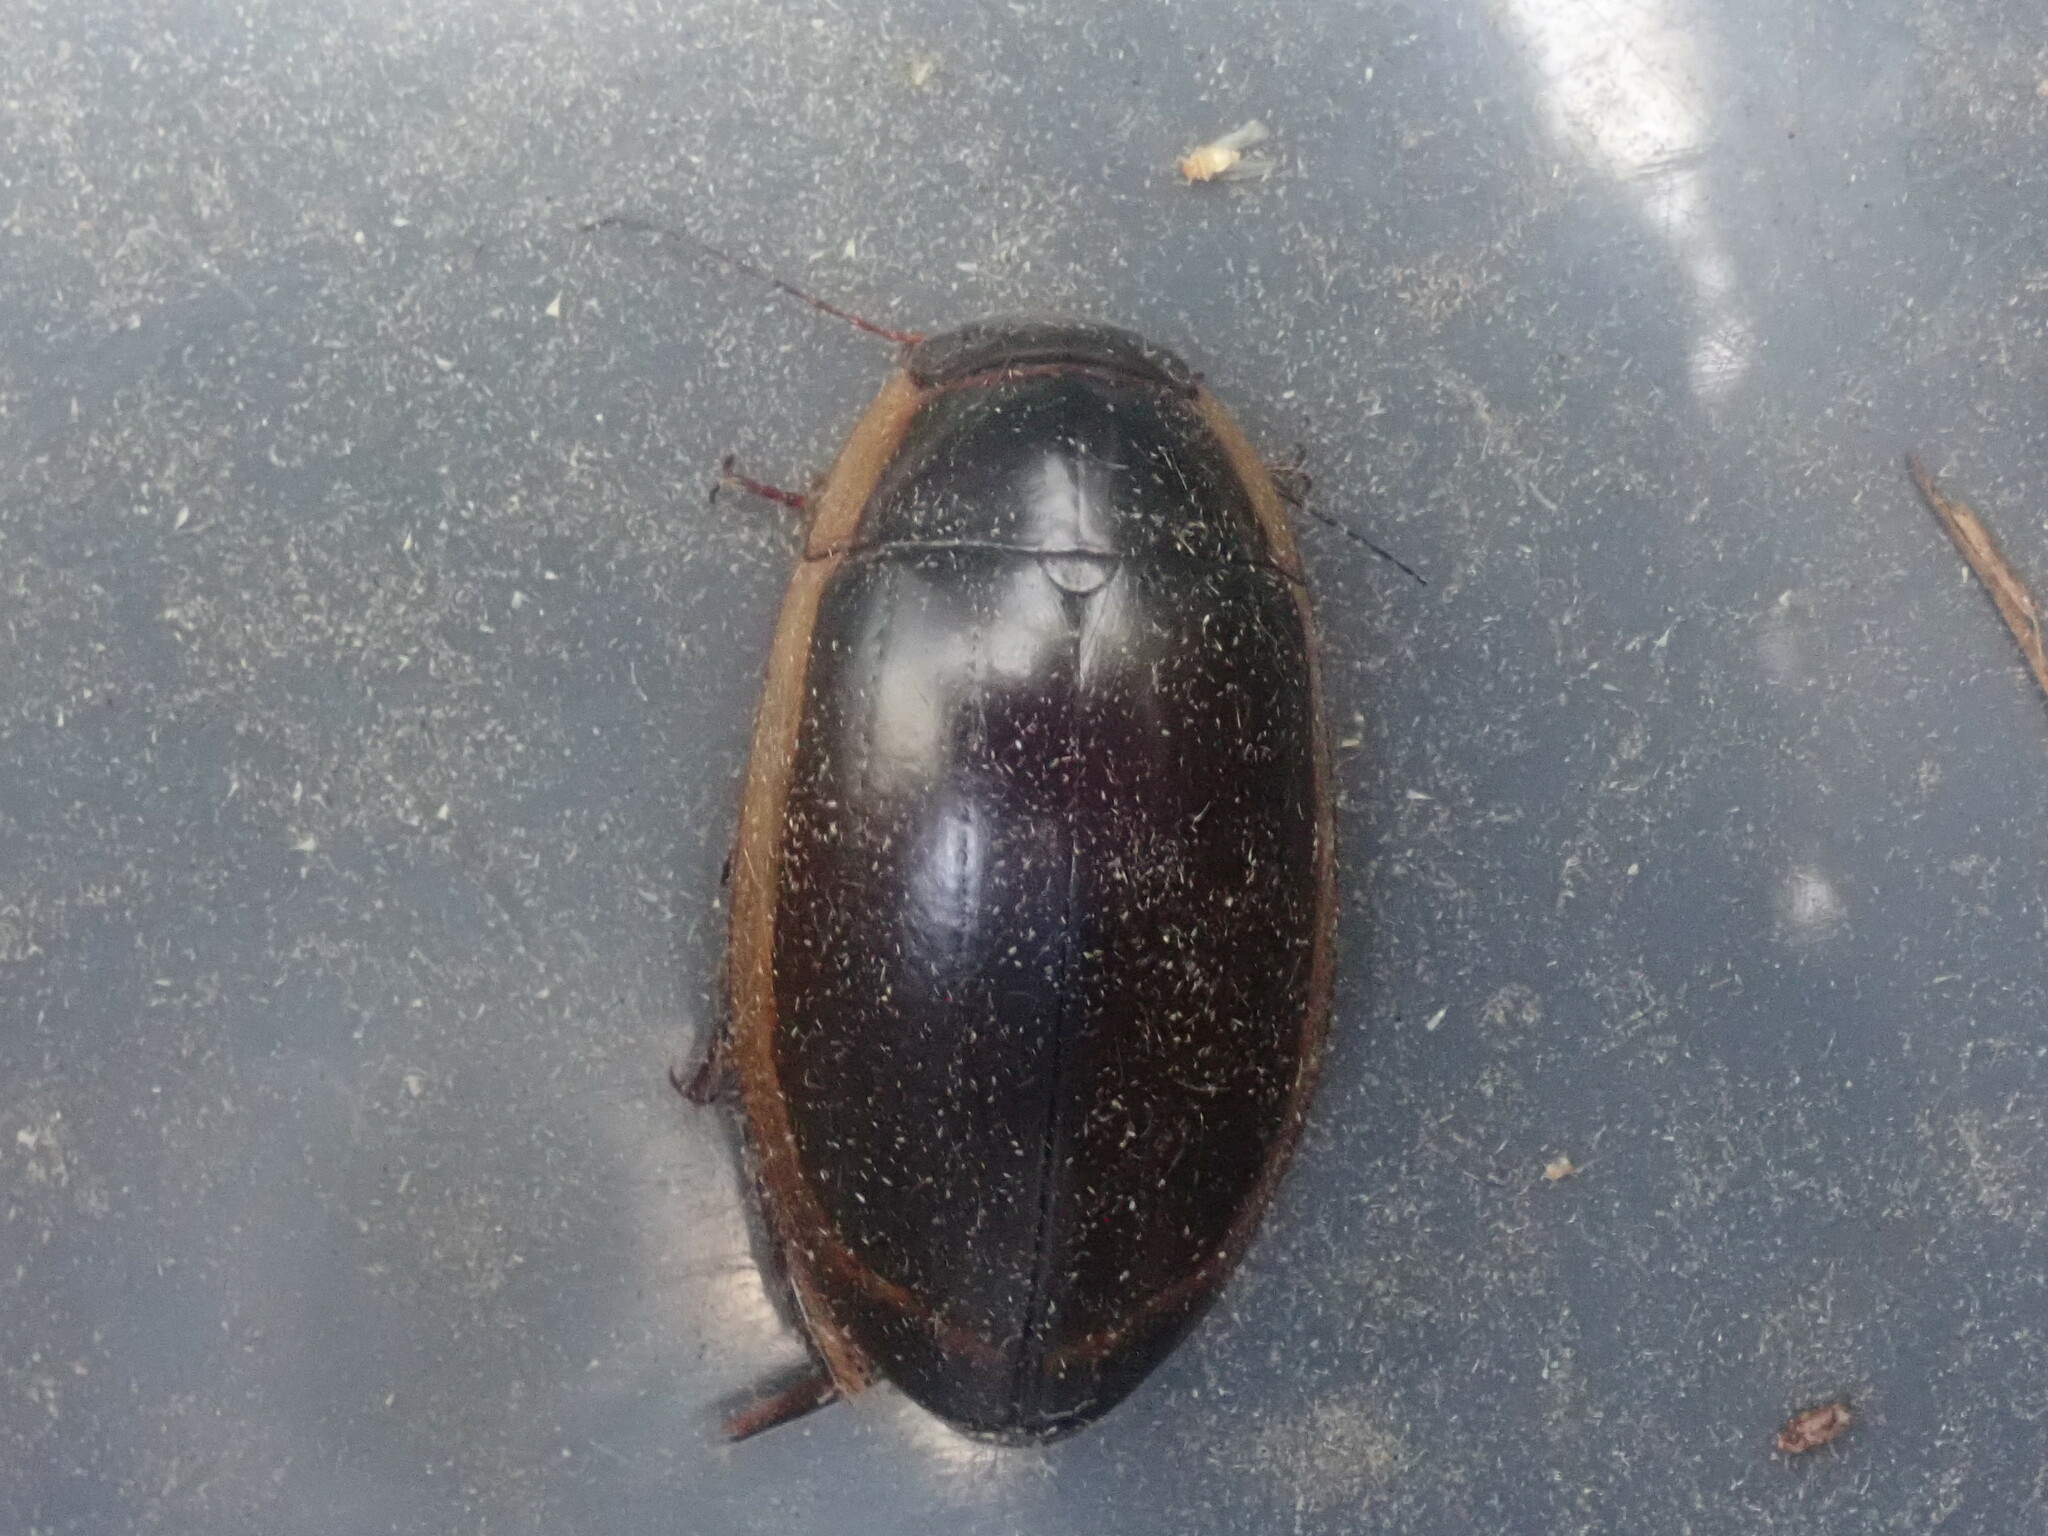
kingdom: Animalia
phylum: Arthropoda
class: Insecta
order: Coleoptera
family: Dytiscidae
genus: Dytiscus
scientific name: Dytiscus verticalis
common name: Vertical diving beetle
